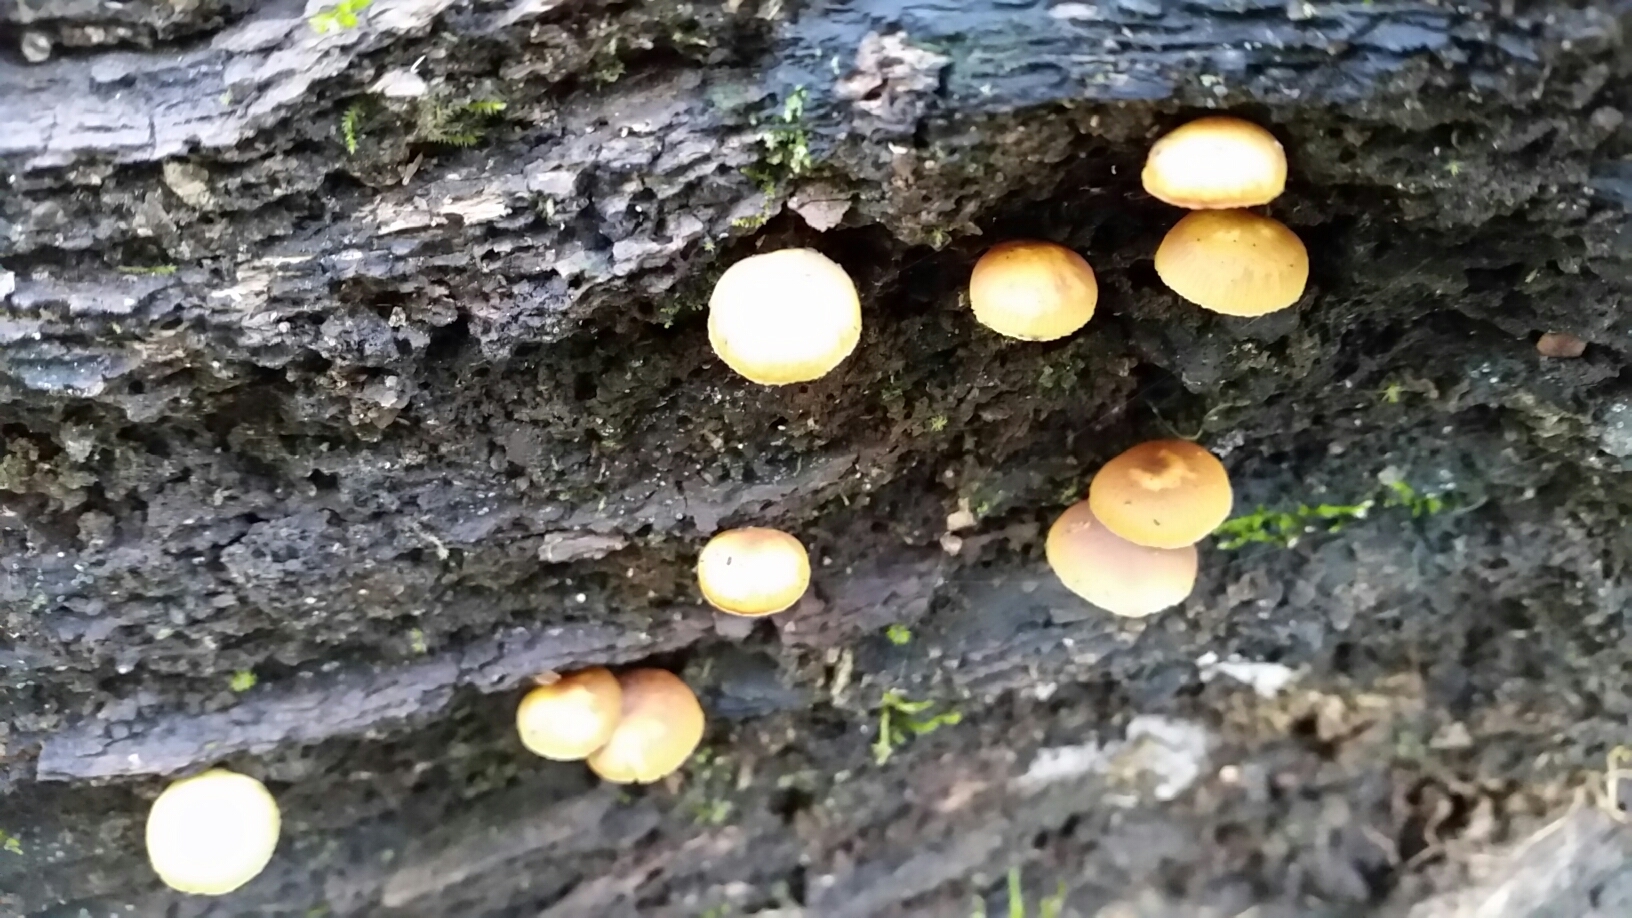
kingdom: Fungi
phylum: Basidiomycota
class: Agaricomycetes
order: Agaricales
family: Hymenogastraceae
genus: Galerina
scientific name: Galerina marginata
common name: Funeral bell
